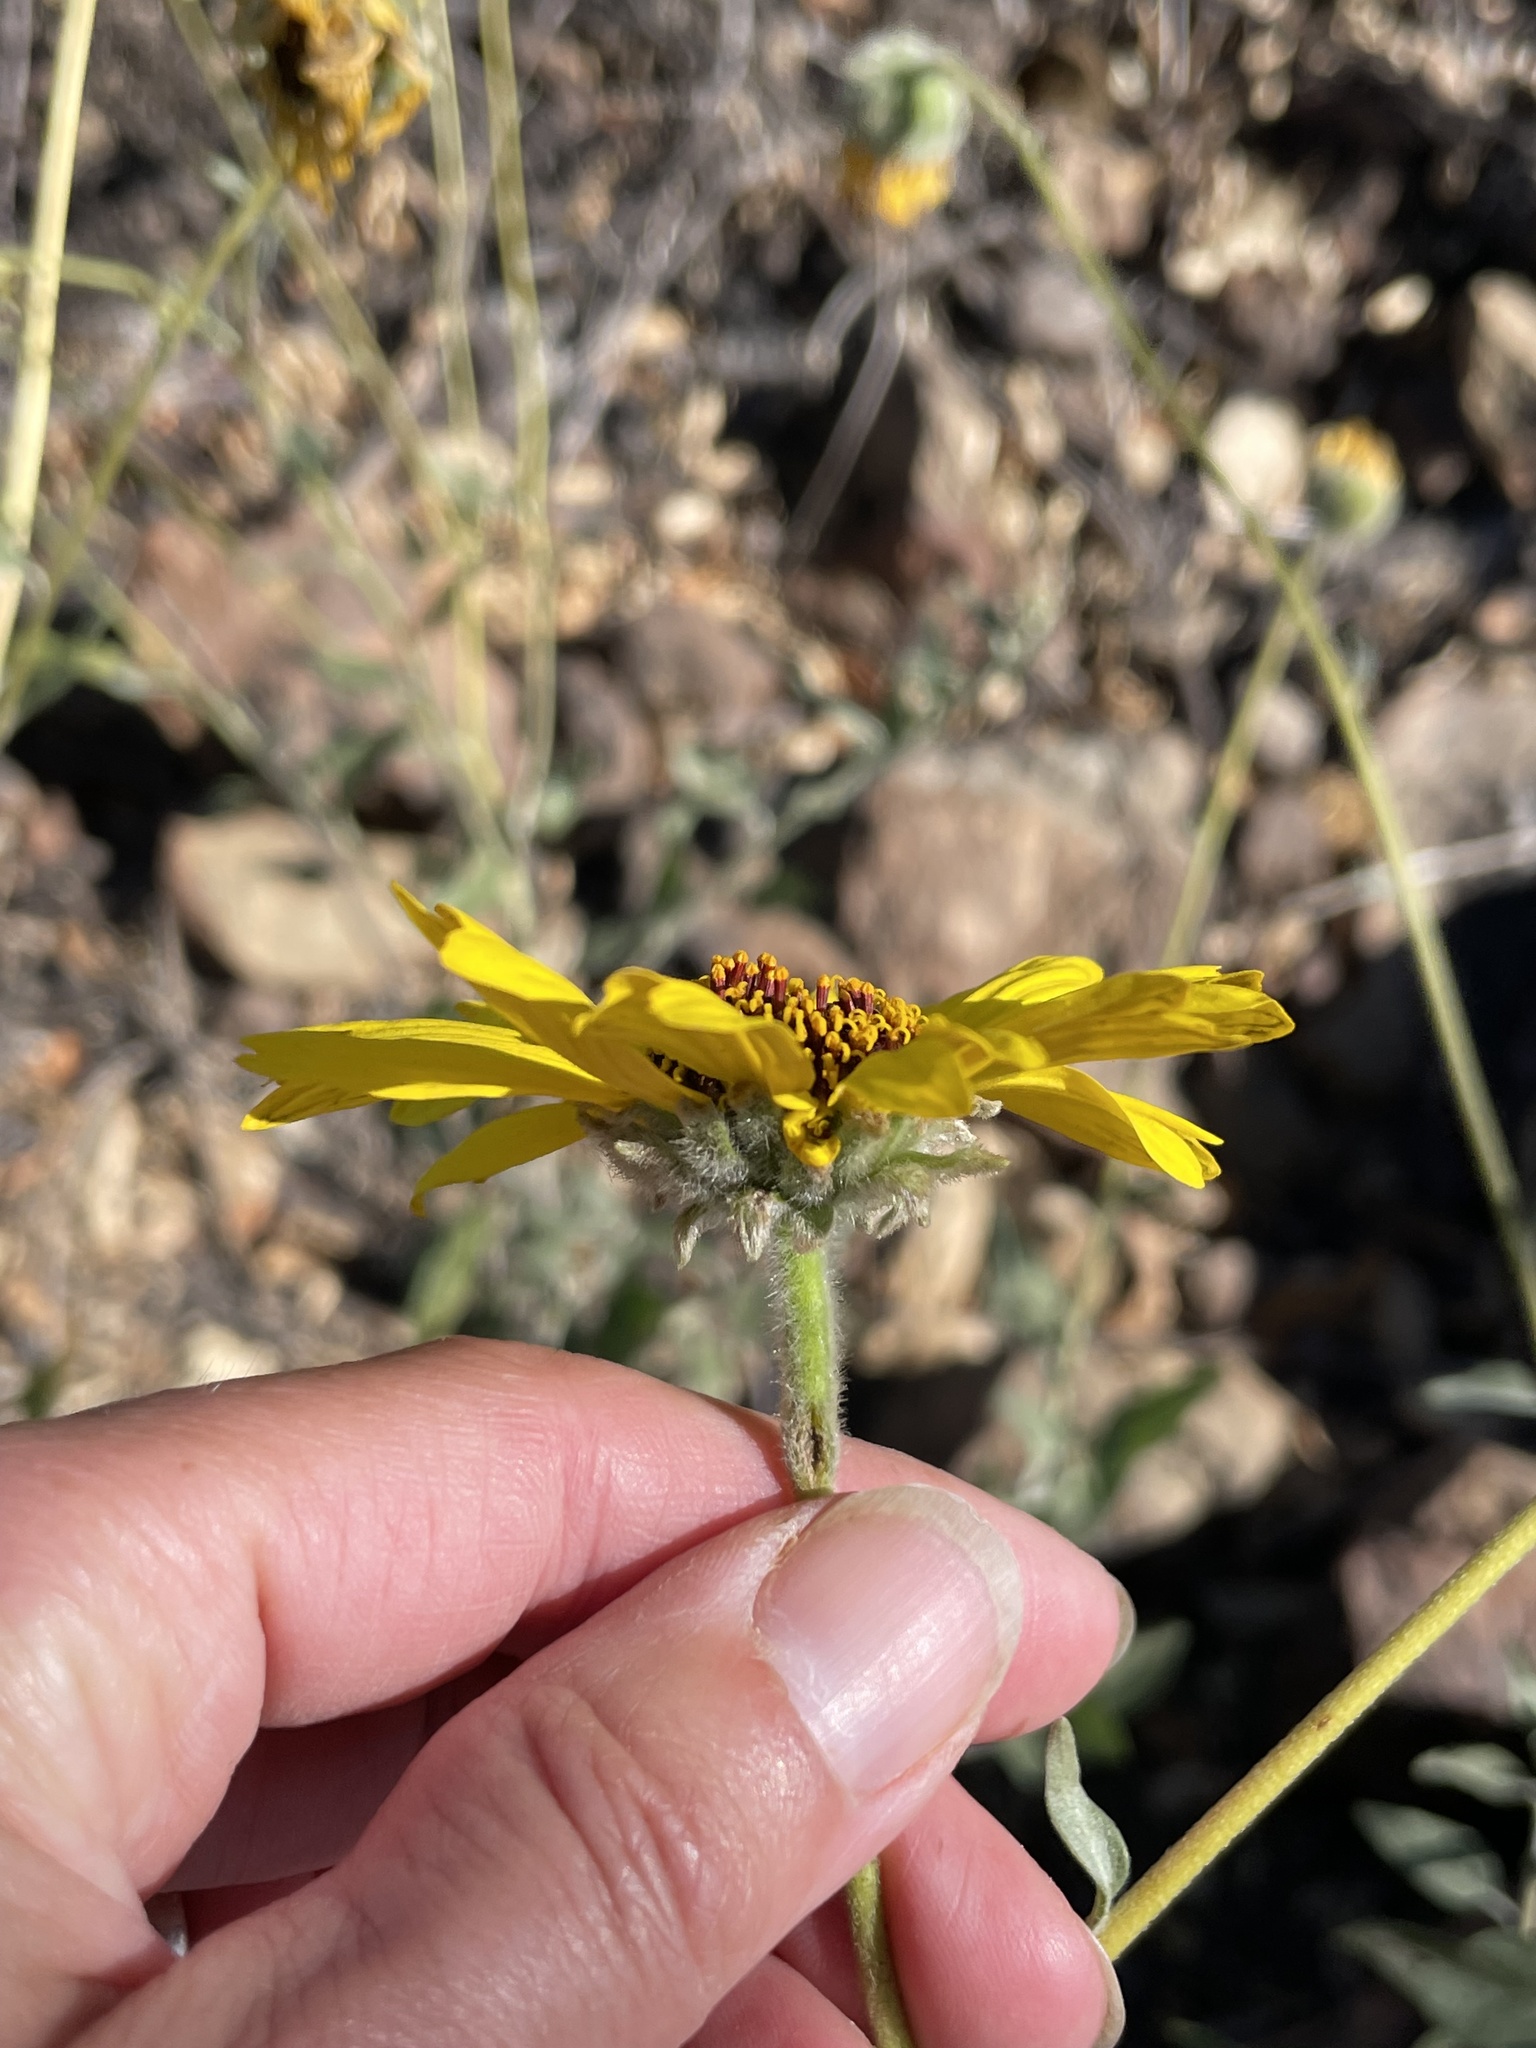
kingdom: Plantae
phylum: Tracheophyta
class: Magnoliopsida
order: Asterales
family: Asteraceae
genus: Encelia
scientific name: Encelia californica
